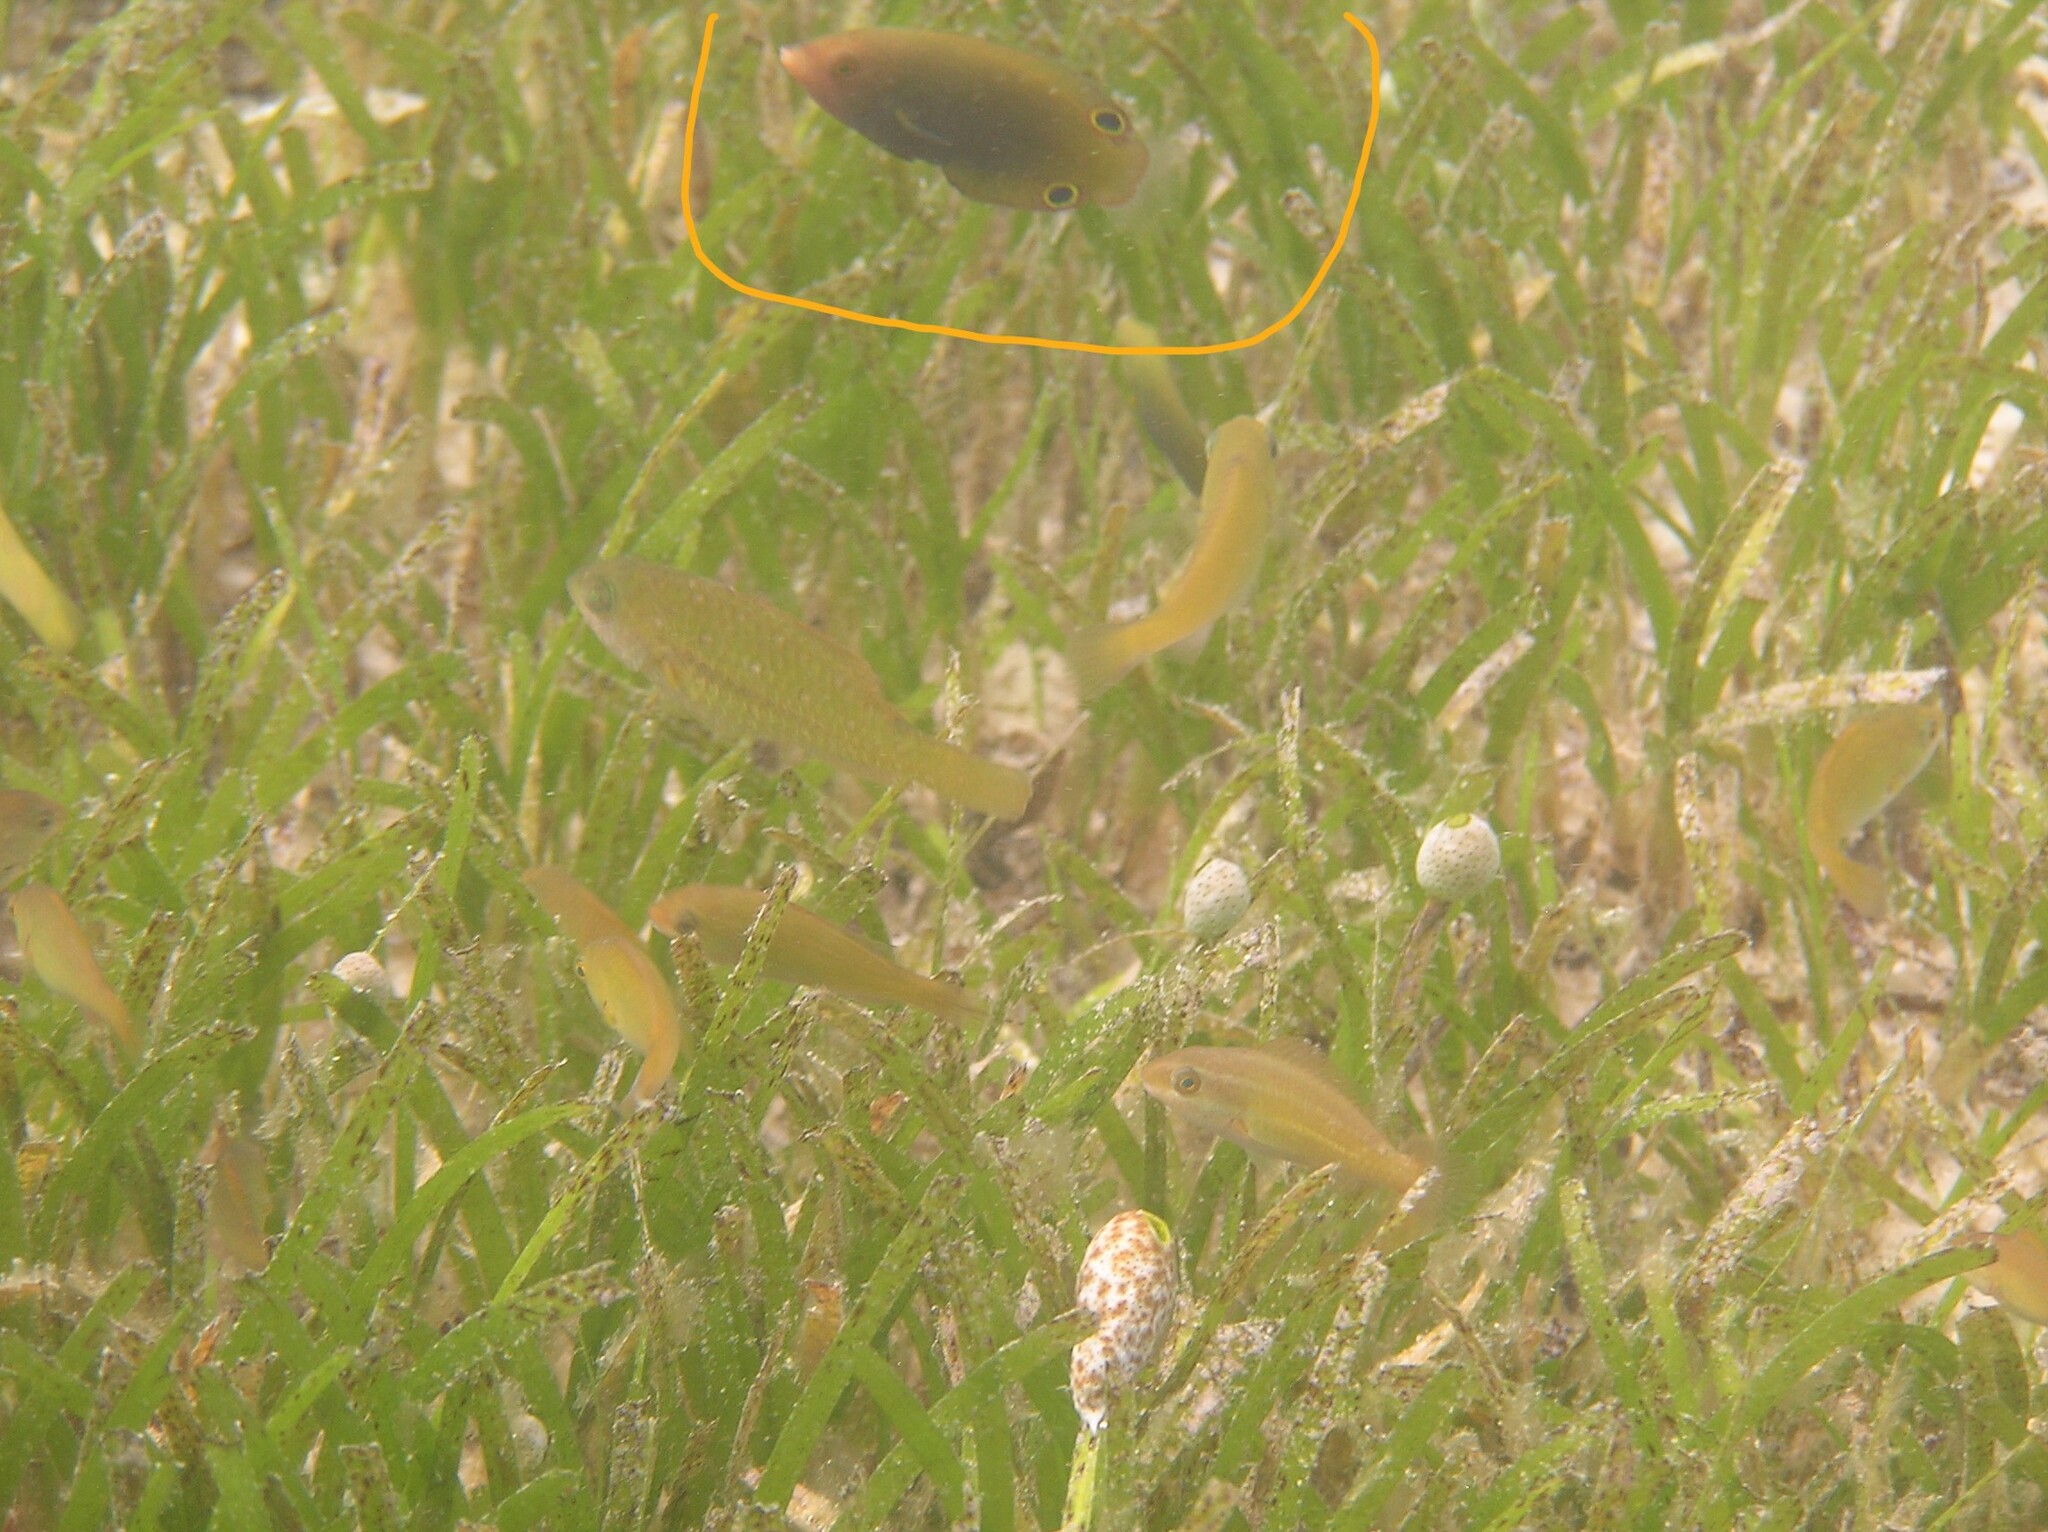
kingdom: Animalia
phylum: Chordata
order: Perciformes
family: Labridae
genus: Anampses
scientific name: Anampses geographicus
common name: Geographic wrasse
